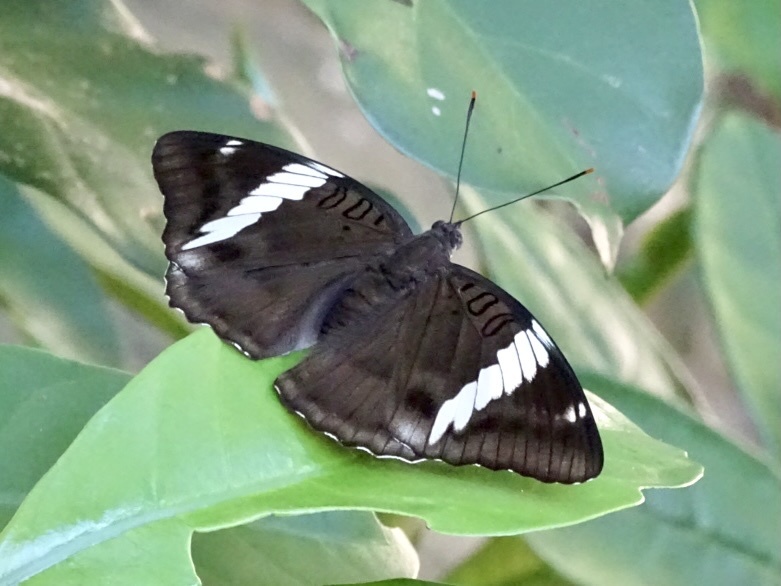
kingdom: Animalia
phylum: Arthropoda
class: Insecta
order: Lepidoptera
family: Nymphalidae
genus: Euthalia
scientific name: Euthalia phemius
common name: White-edged blue baron
